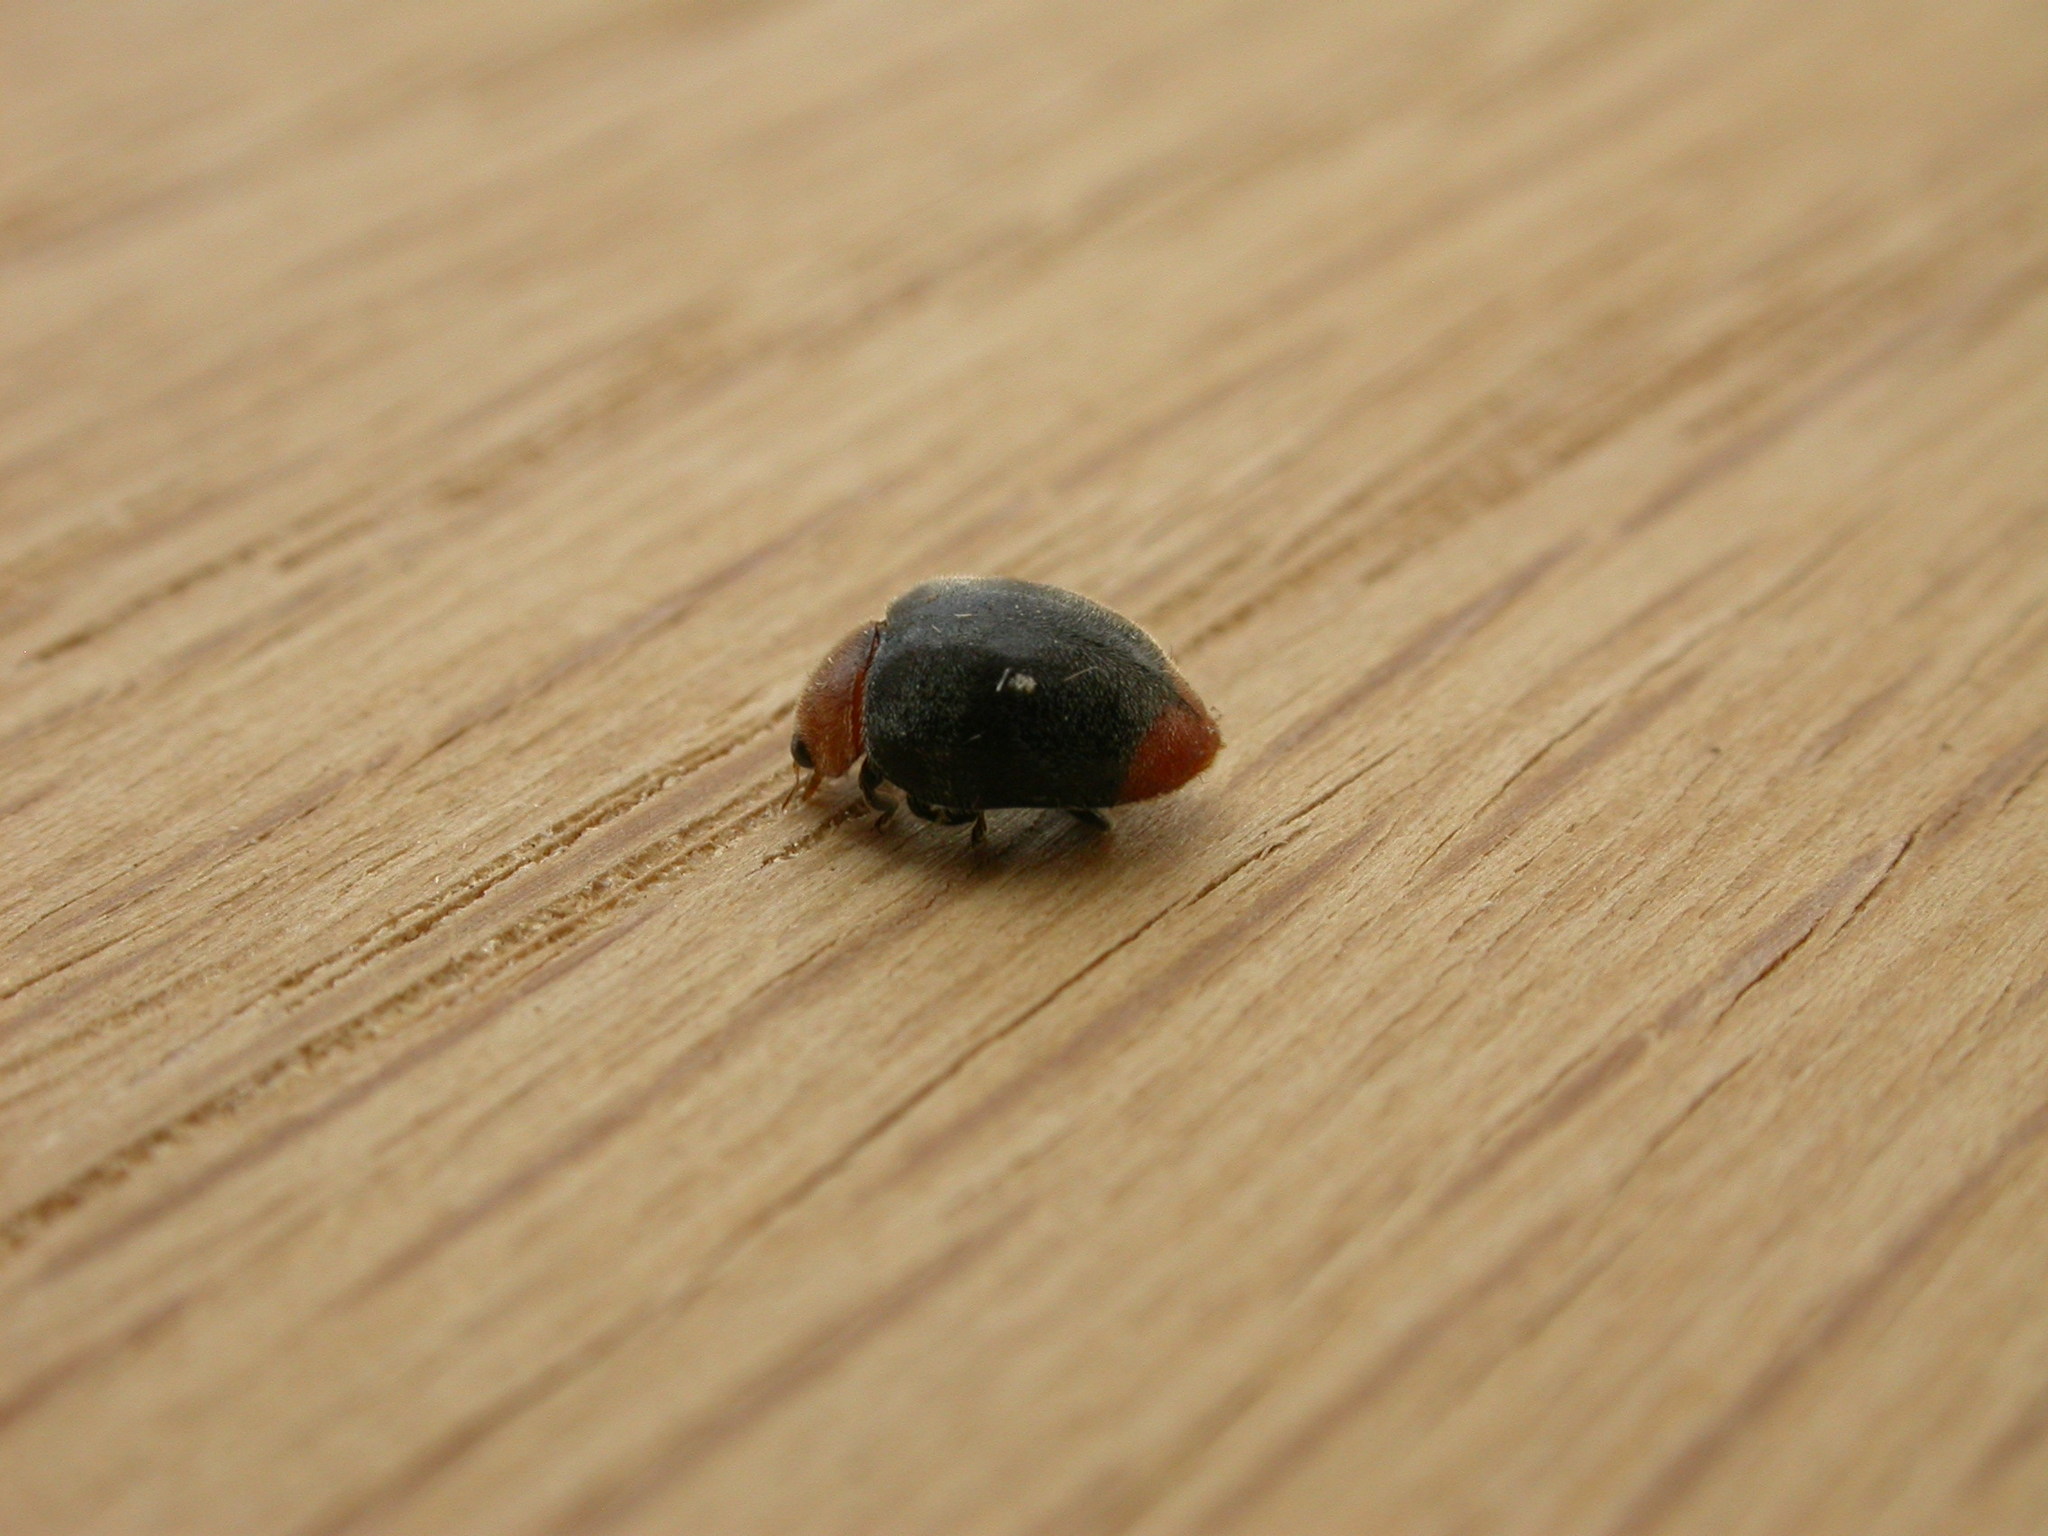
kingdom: Animalia
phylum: Arthropoda
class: Insecta
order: Coleoptera
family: Coccinellidae
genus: Cryptolaemus
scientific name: Cryptolaemus montrouzieri
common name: Mealybug destroyer
